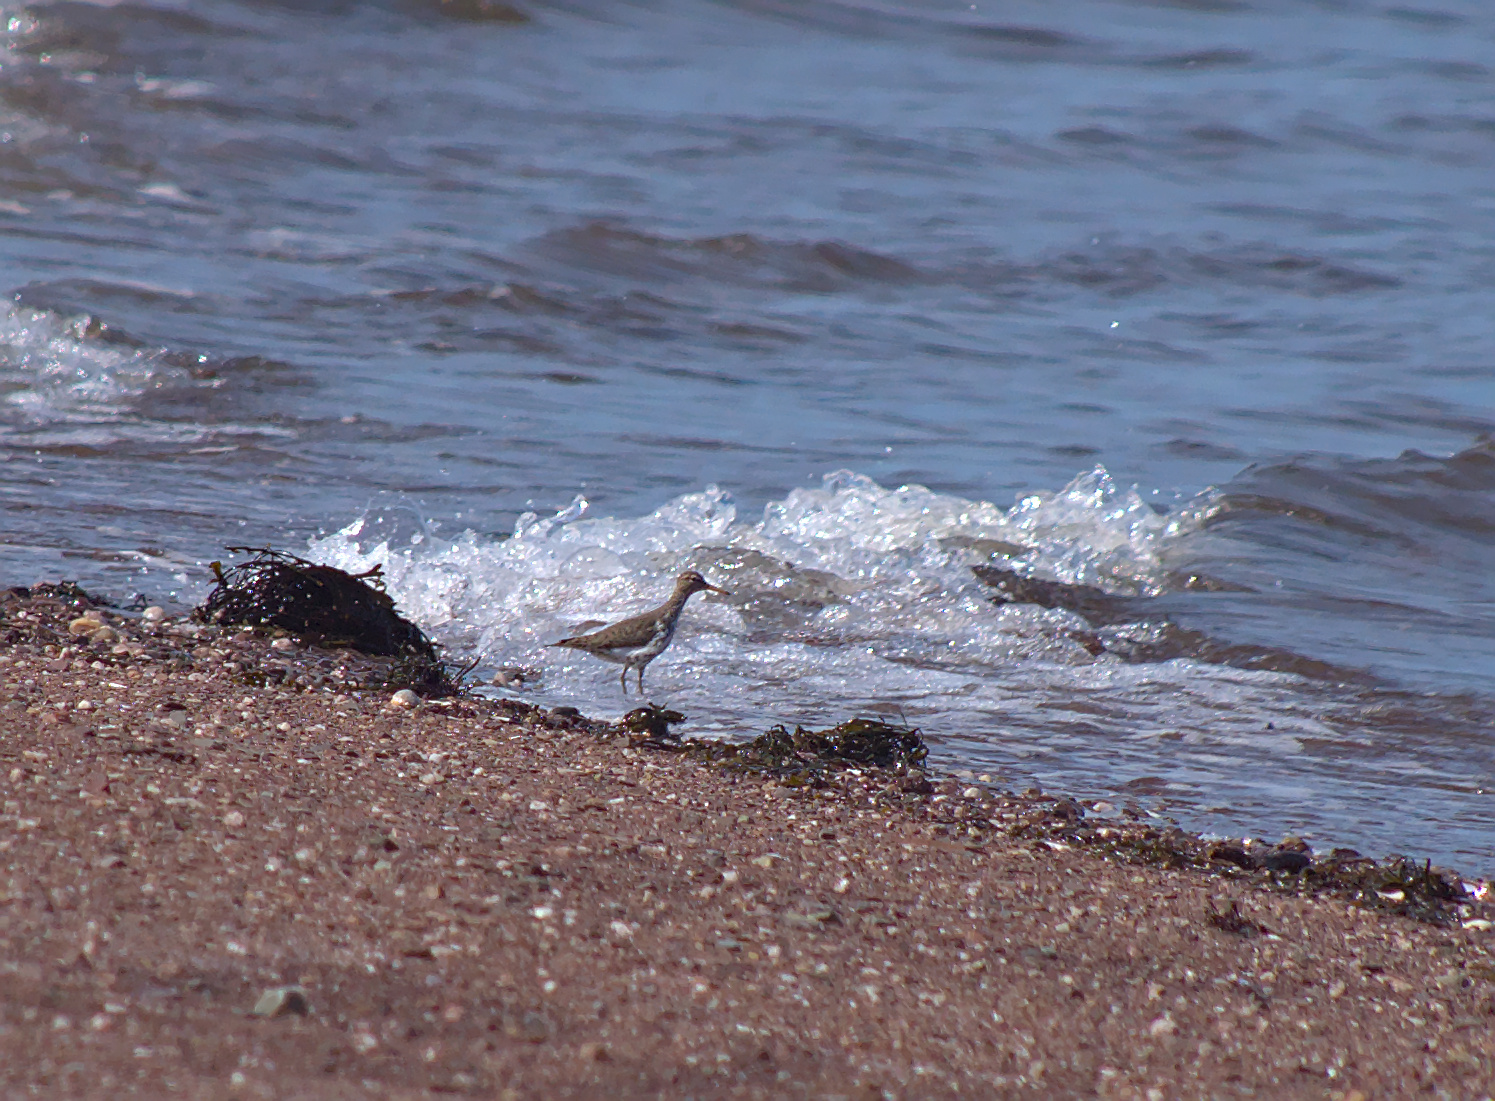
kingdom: Animalia
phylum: Chordata
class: Aves
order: Charadriiformes
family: Scolopacidae
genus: Actitis
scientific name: Actitis macularius
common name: Spotted sandpiper
